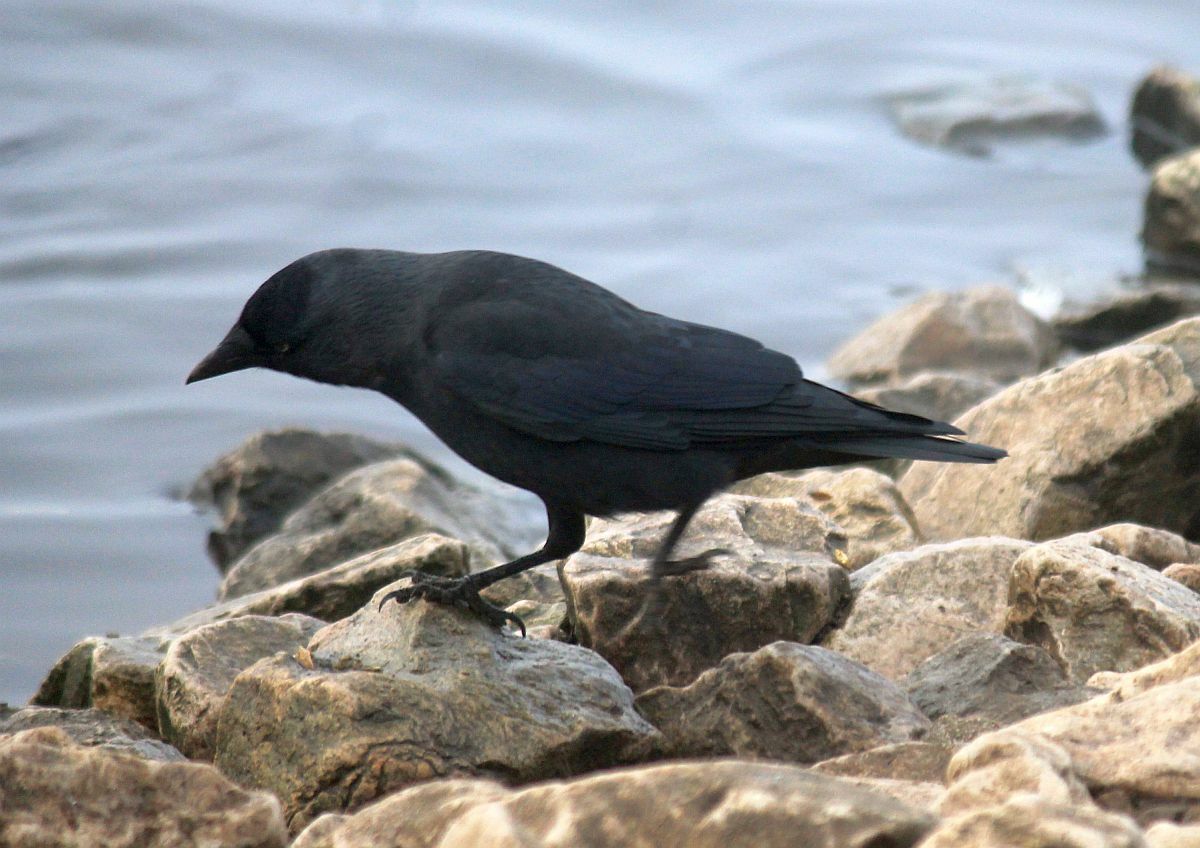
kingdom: Animalia
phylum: Chordata
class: Aves
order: Passeriformes
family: Corvidae
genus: Coloeus
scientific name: Coloeus monedula
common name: Western jackdaw
